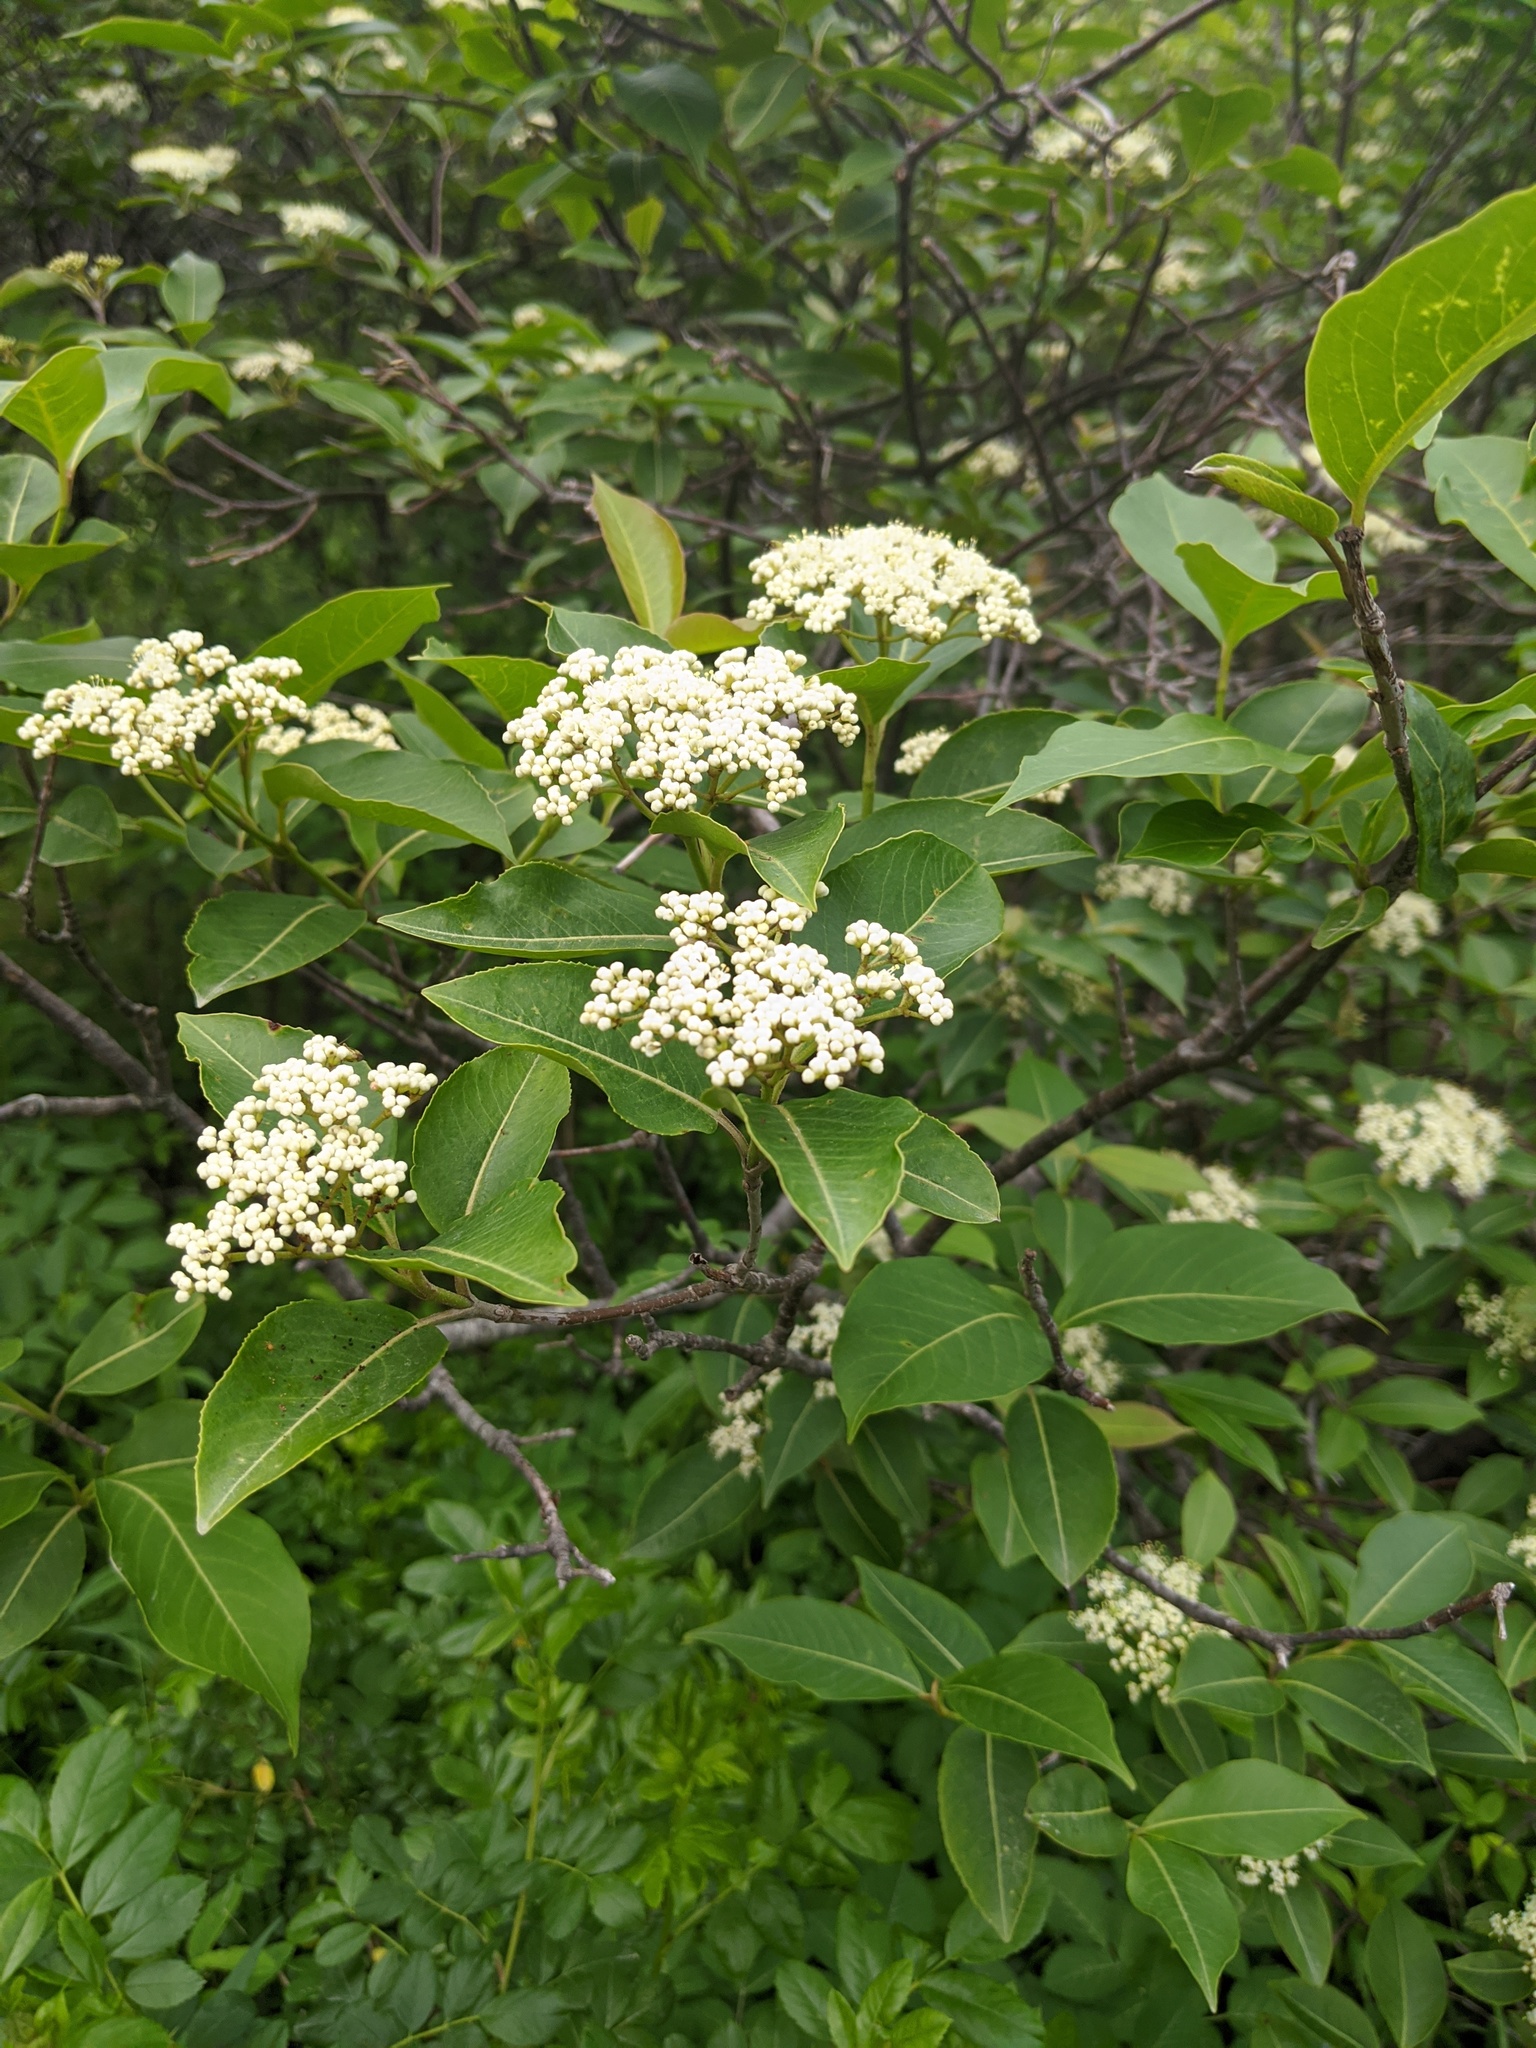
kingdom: Plantae
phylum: Tracheophyta
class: Magnoliopsida
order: Dipsacales
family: Viburnaceae
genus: Viburnum
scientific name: Viburnum cassinoides
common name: Swamp haw
